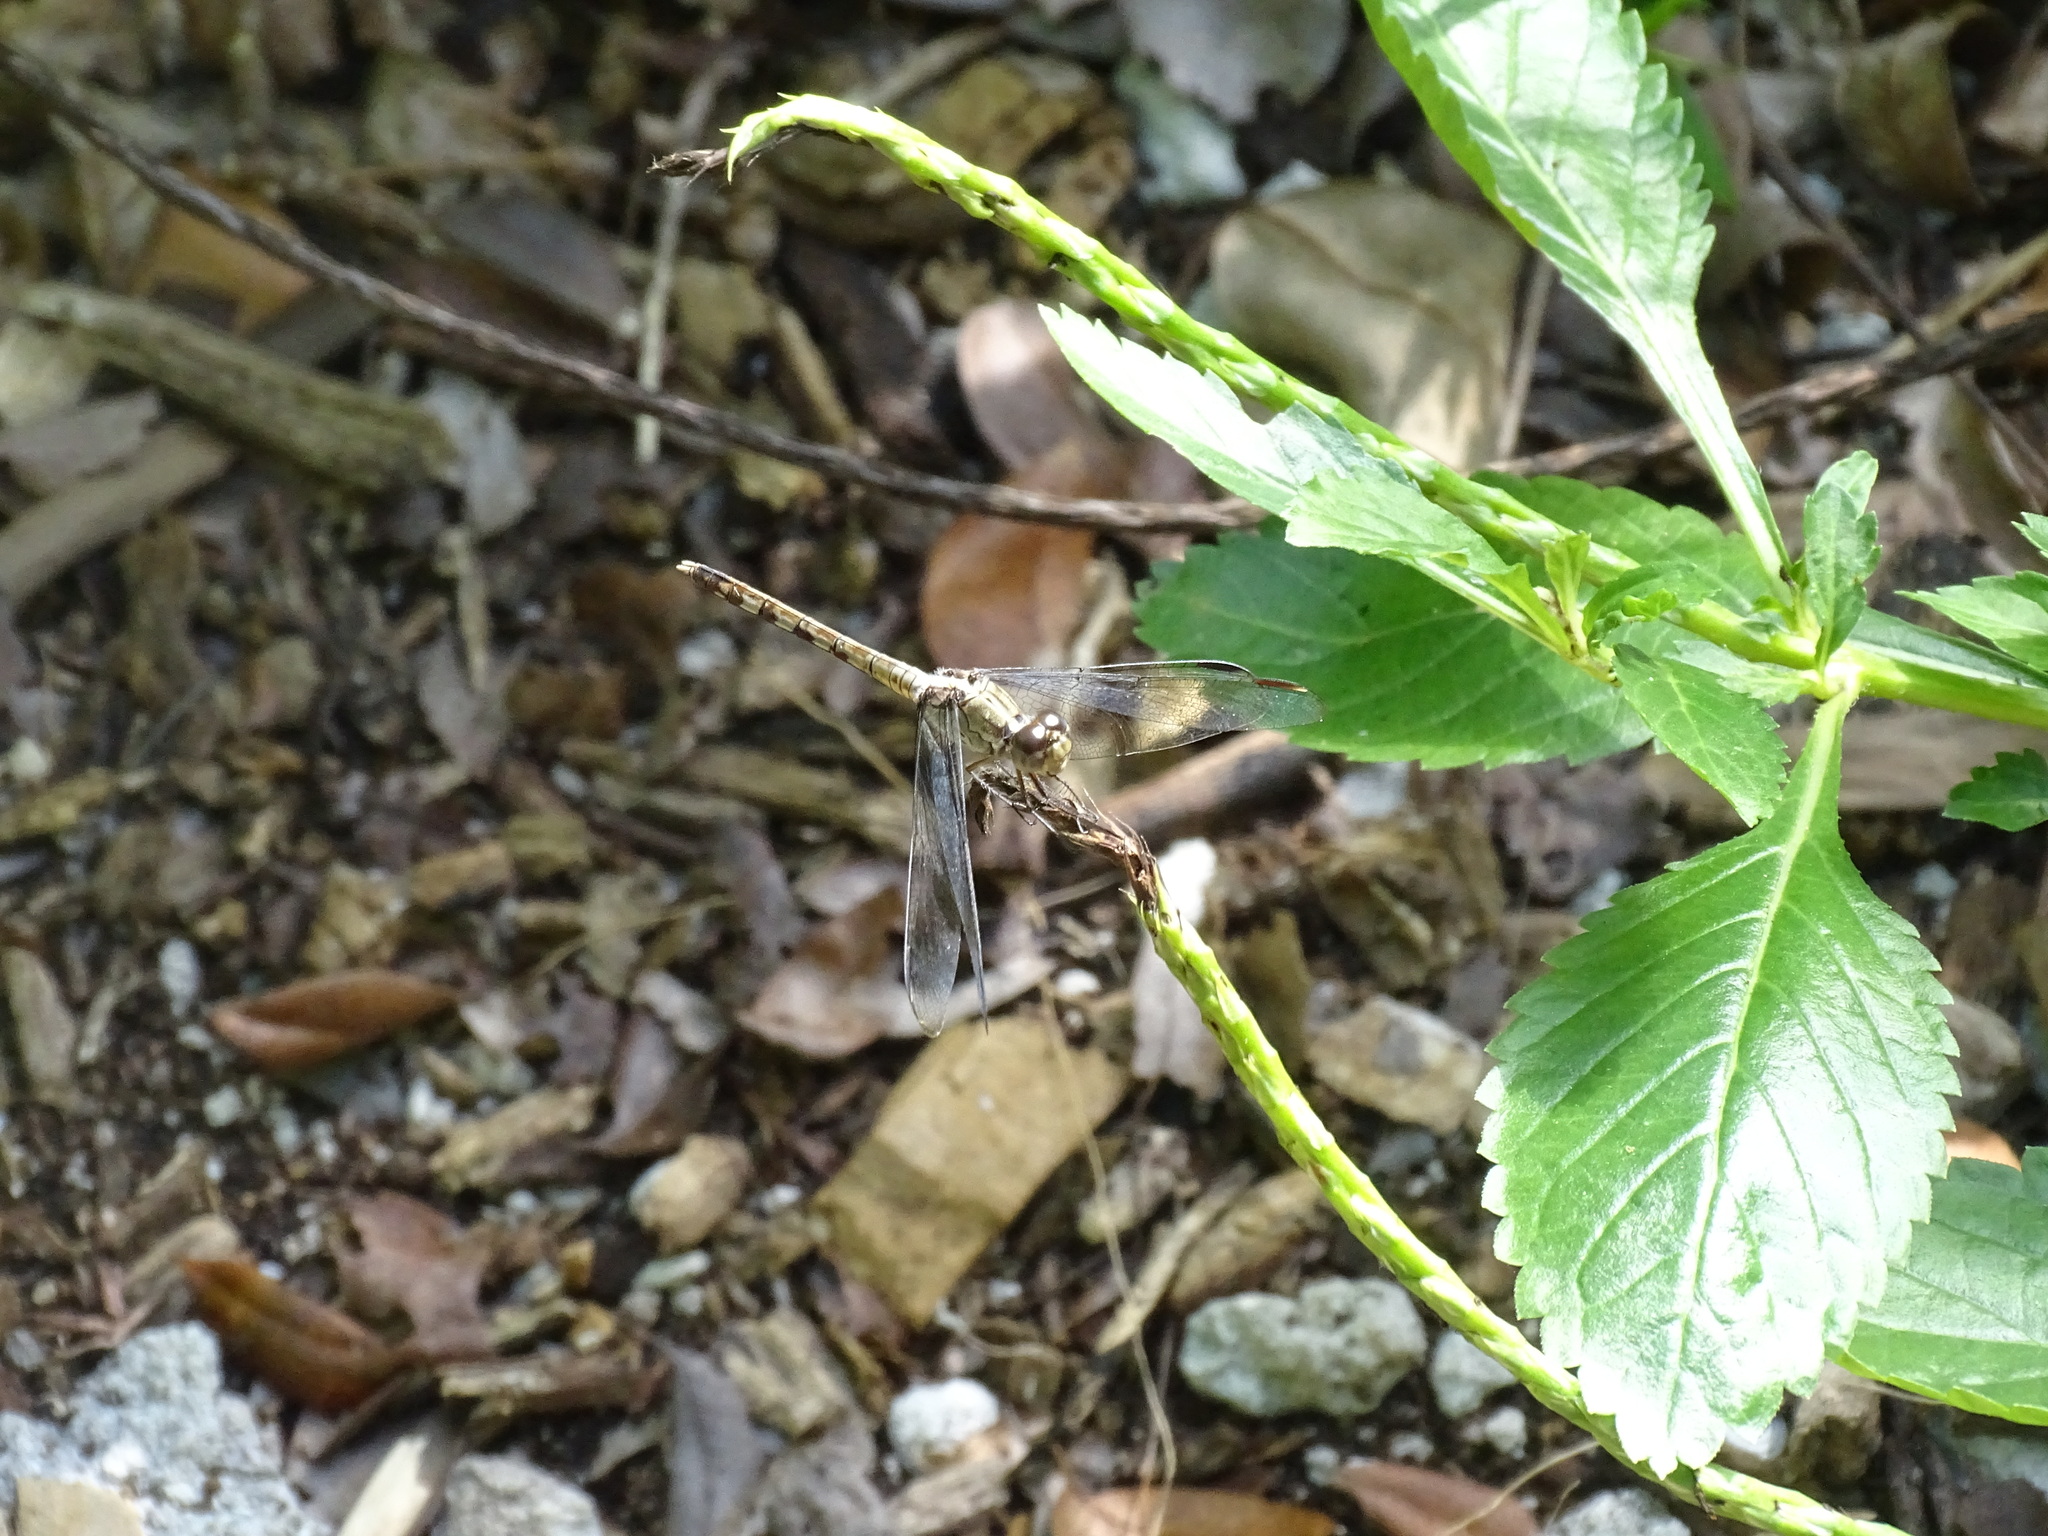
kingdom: Animalia
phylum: Arthropoda
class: Insecta
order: Odonata
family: Libellulidae
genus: Erythrodiplax
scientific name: Erythrodiplax umbrata
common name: Band-winged dragonlet
